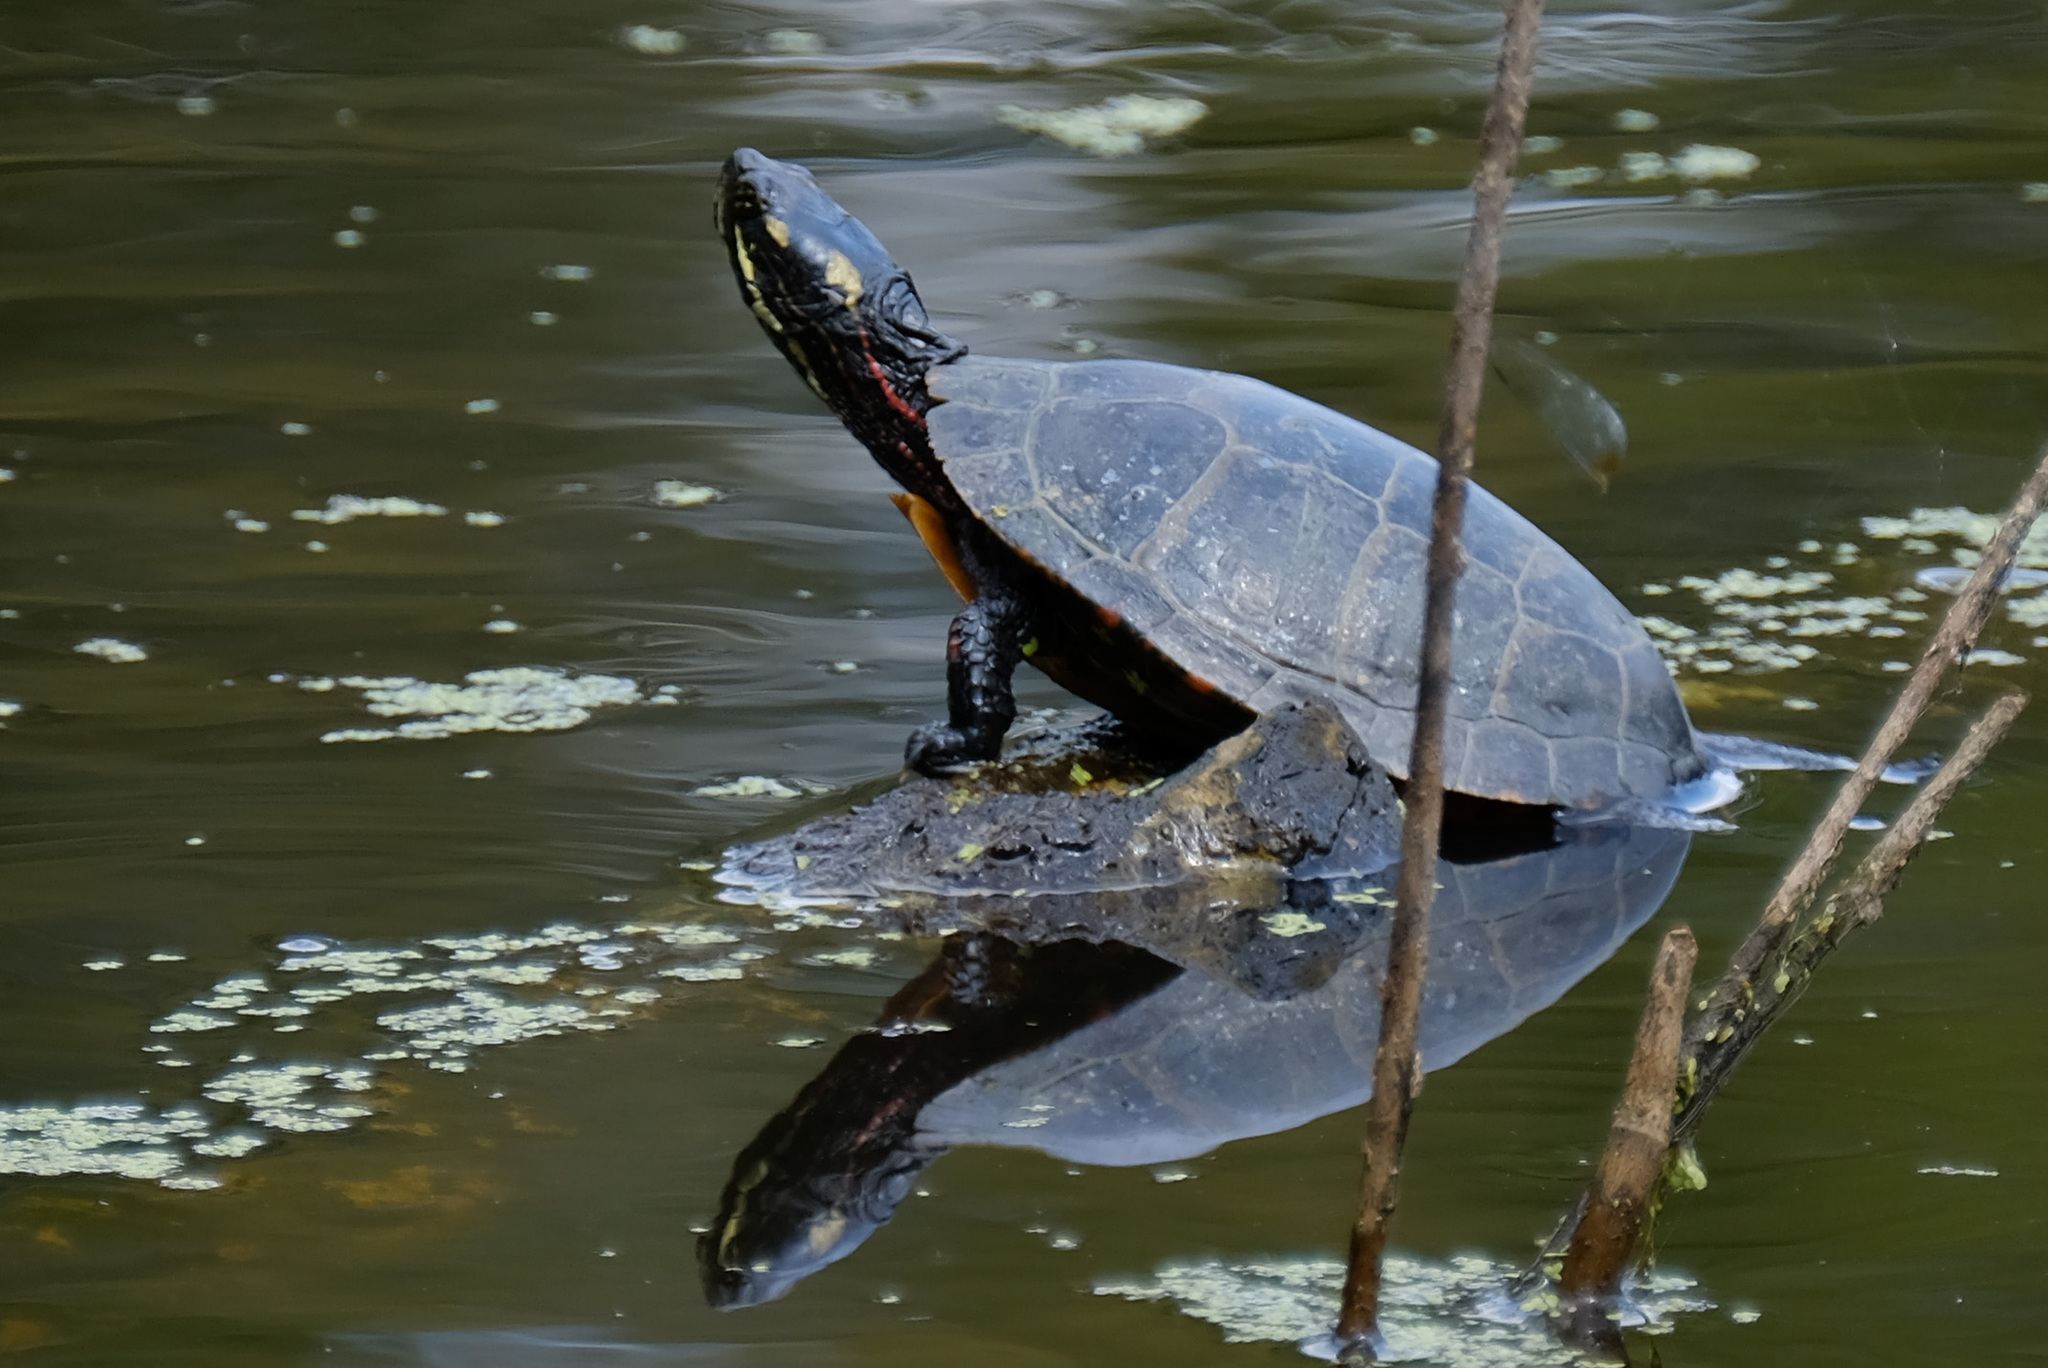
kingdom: Animalia
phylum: Chordata
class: Testudines
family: Emydidae
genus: Chrysemys
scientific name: Chrysemys picta
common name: Painted turtle
